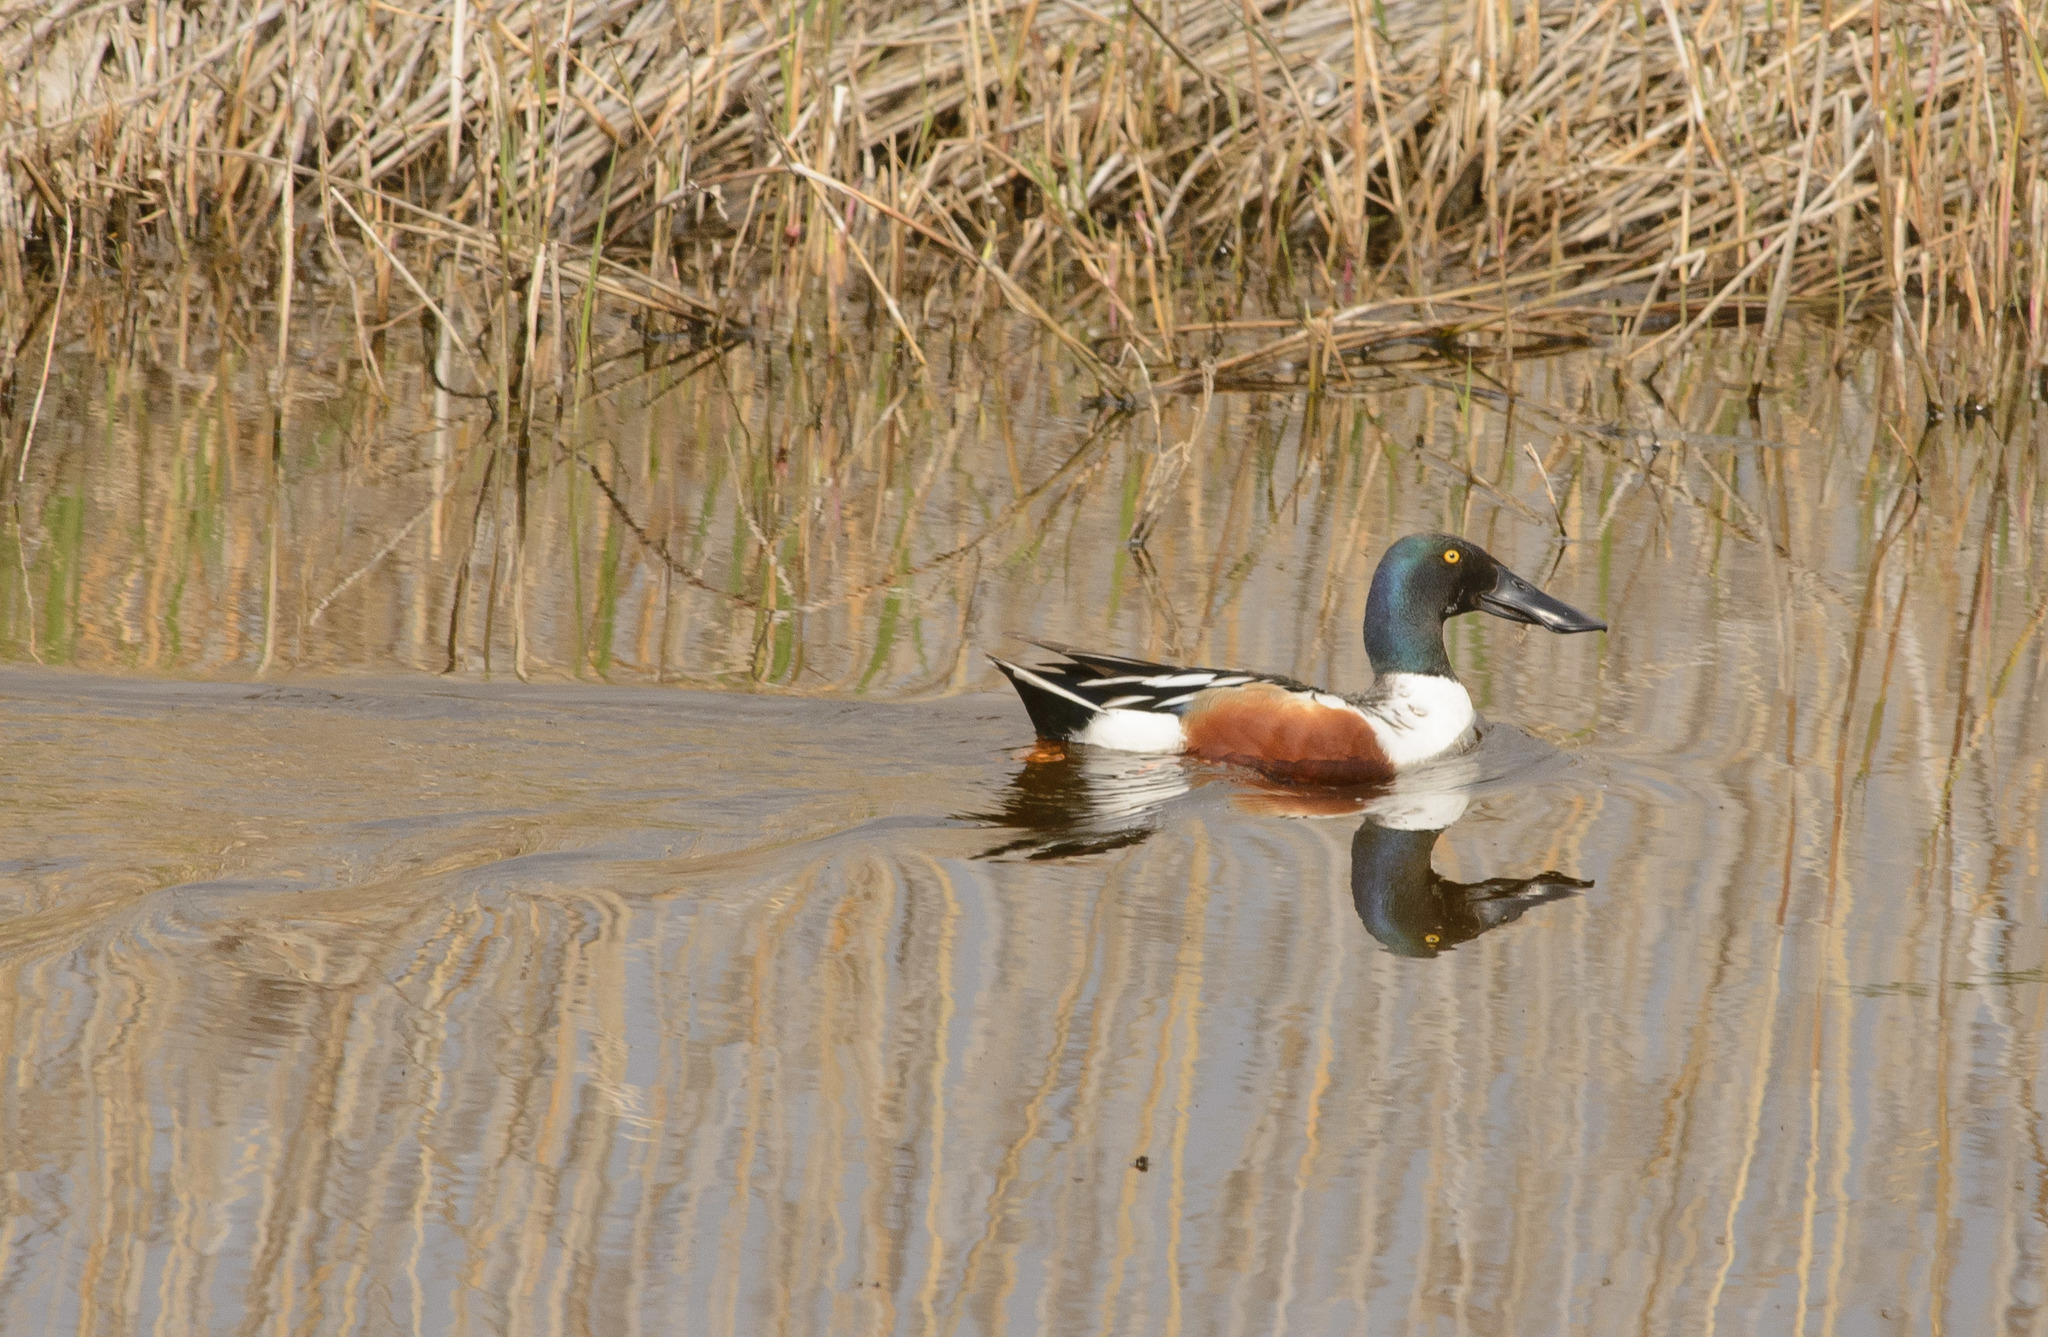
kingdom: Animalia
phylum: Chordata
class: Aves
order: Anseriformes
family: Anatidae
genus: Spatula
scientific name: Spatula clypeata
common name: Northern shoveler
